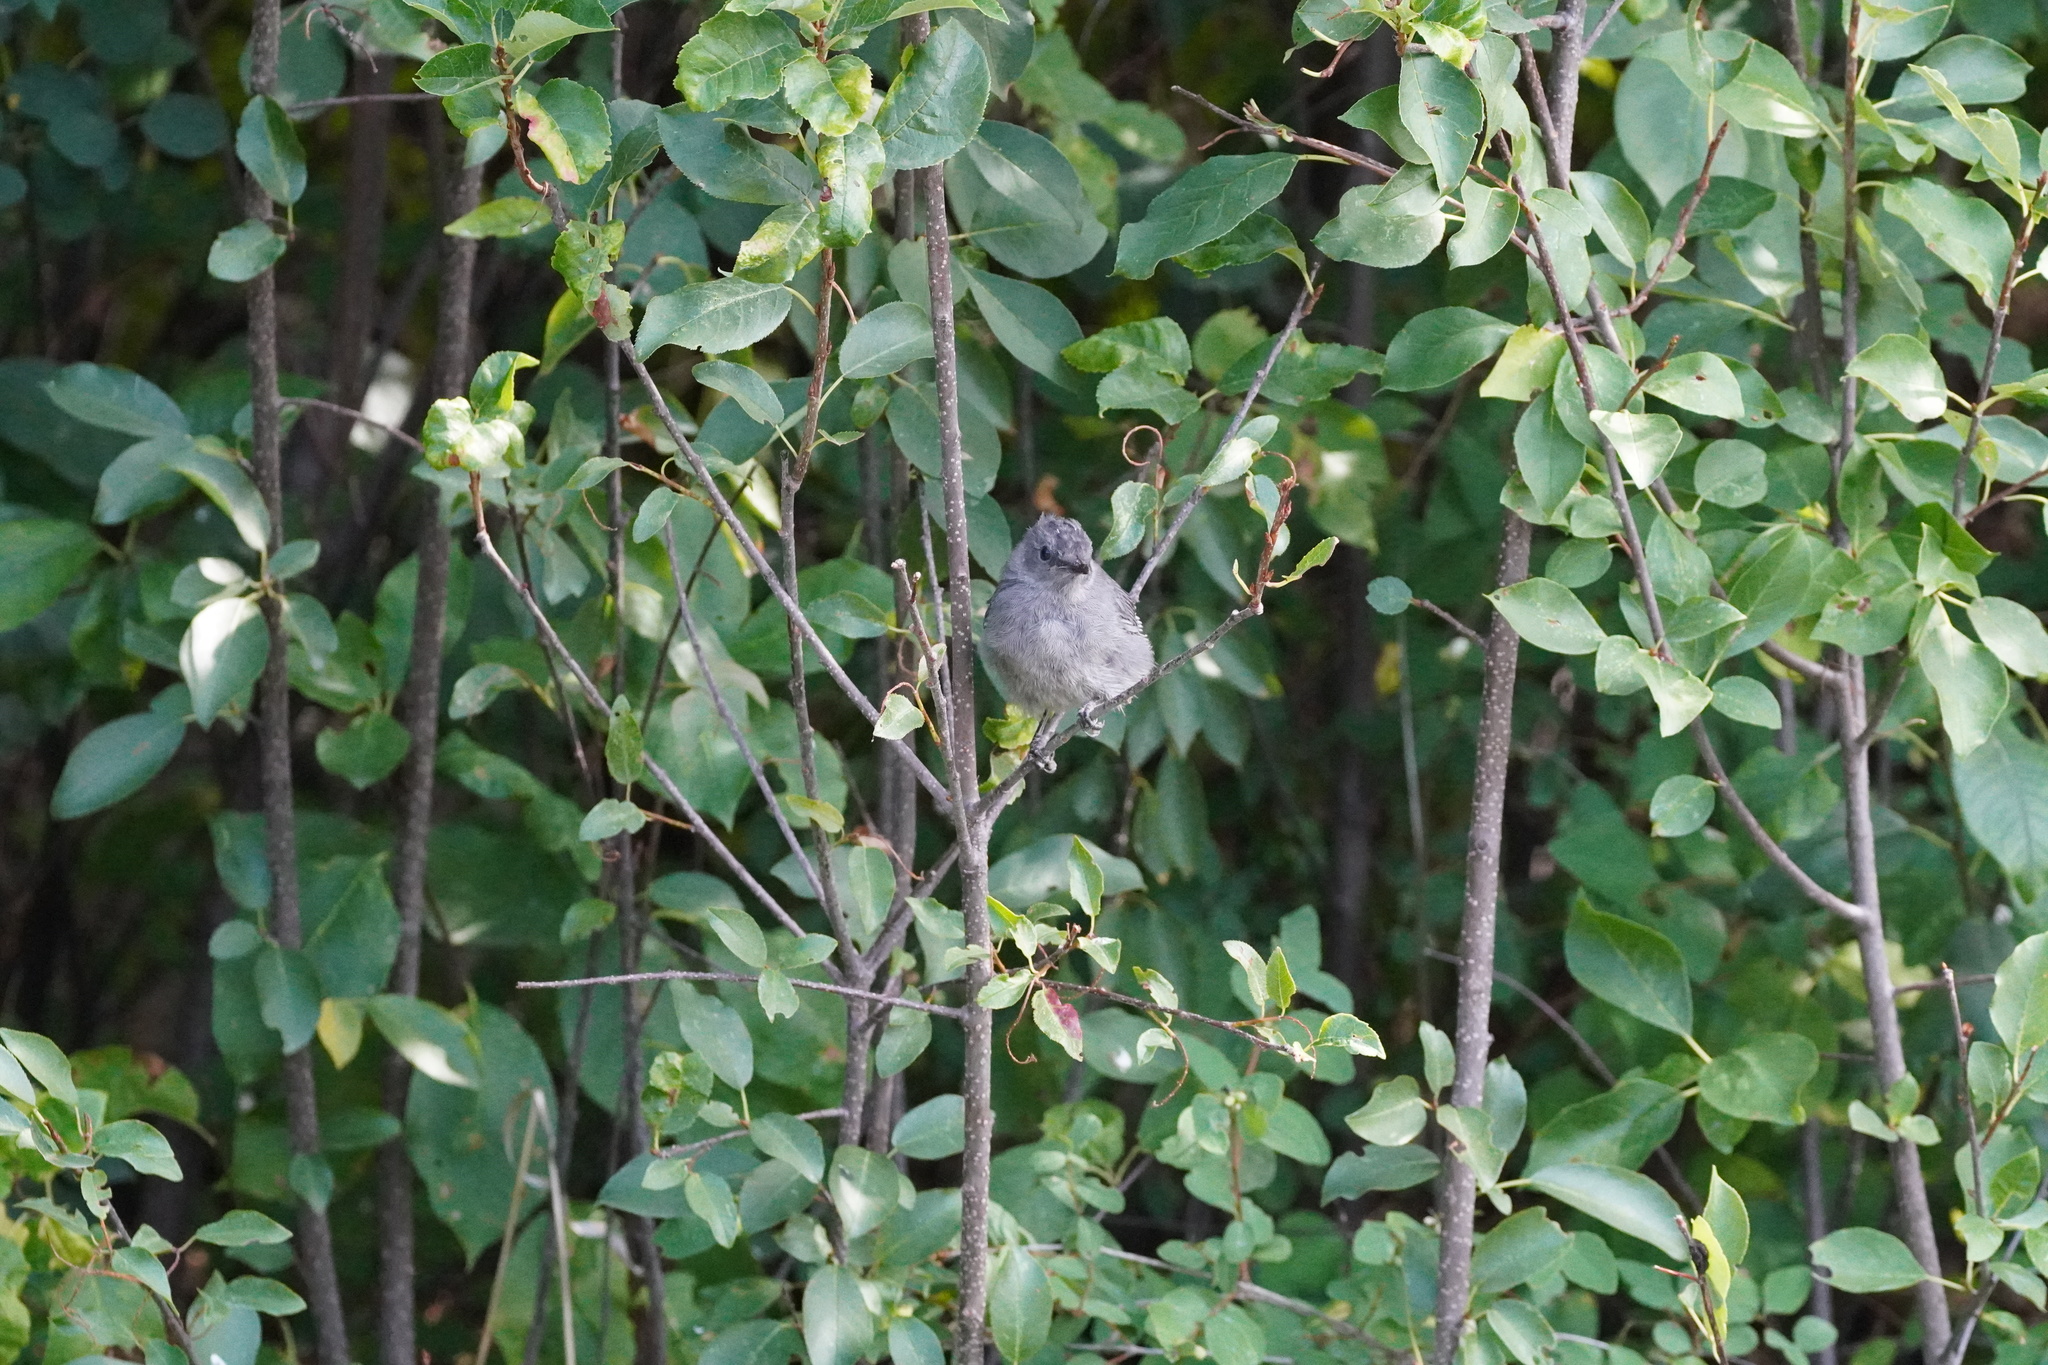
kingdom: Animalia
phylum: Chordata
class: Aves
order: Passeriformes
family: Mimidae
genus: Dumetella
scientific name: Dumetella carolinensis
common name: Gray catbird
